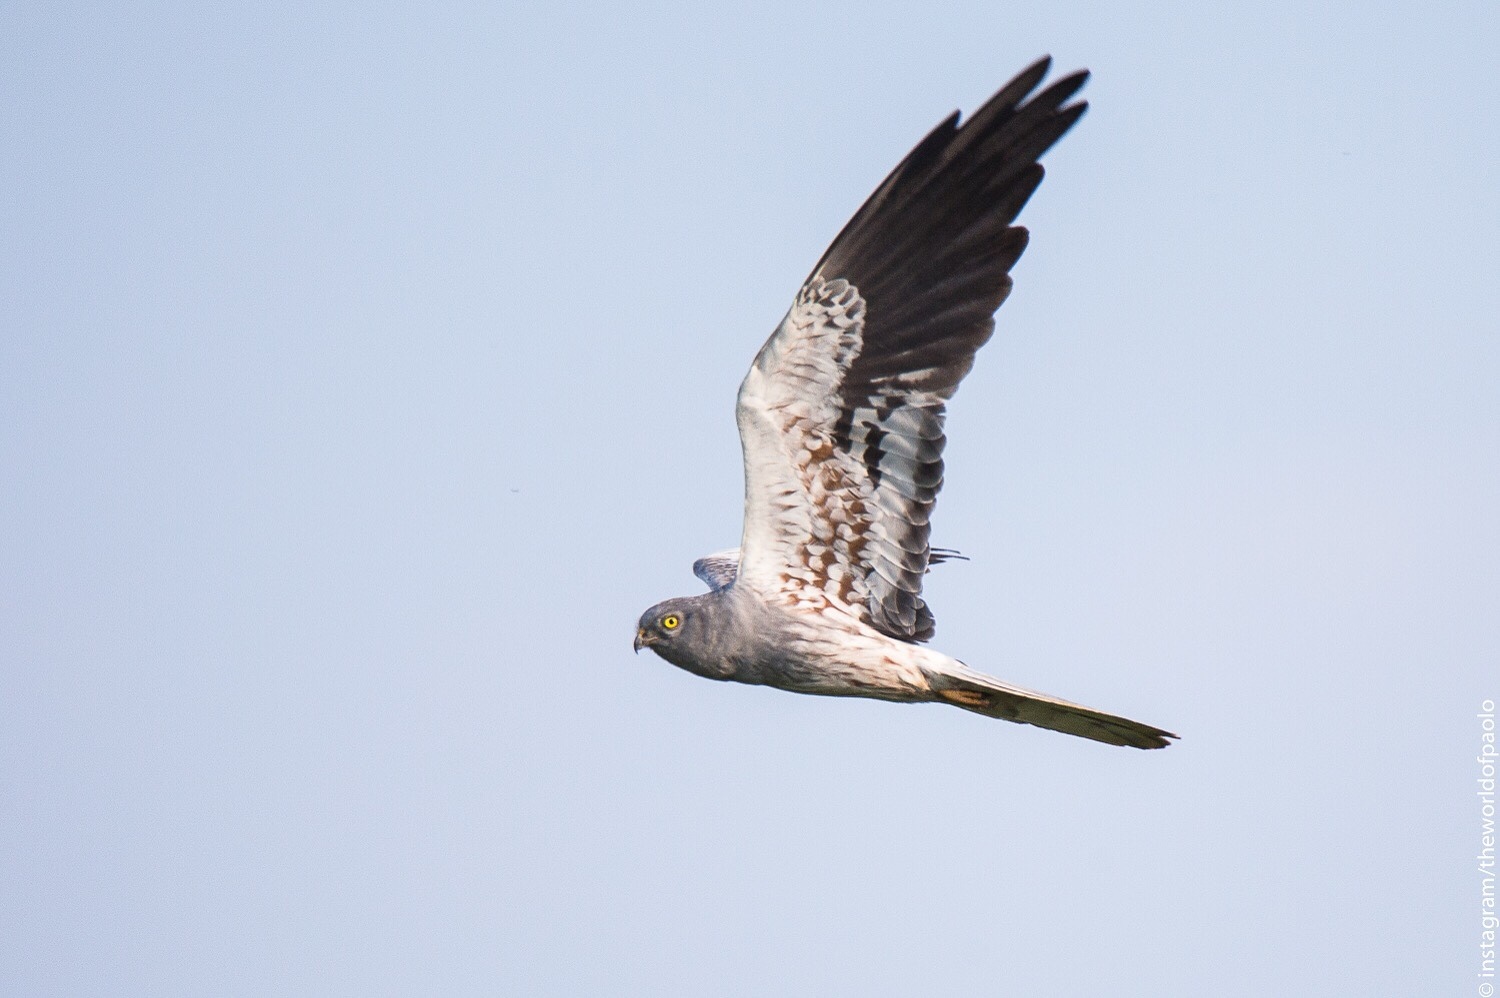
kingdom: Animalia
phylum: Chordata
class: Aves
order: Accipitriformes
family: Accipitridae
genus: Circus
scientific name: Circus pygargus
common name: Montagu's harrier
